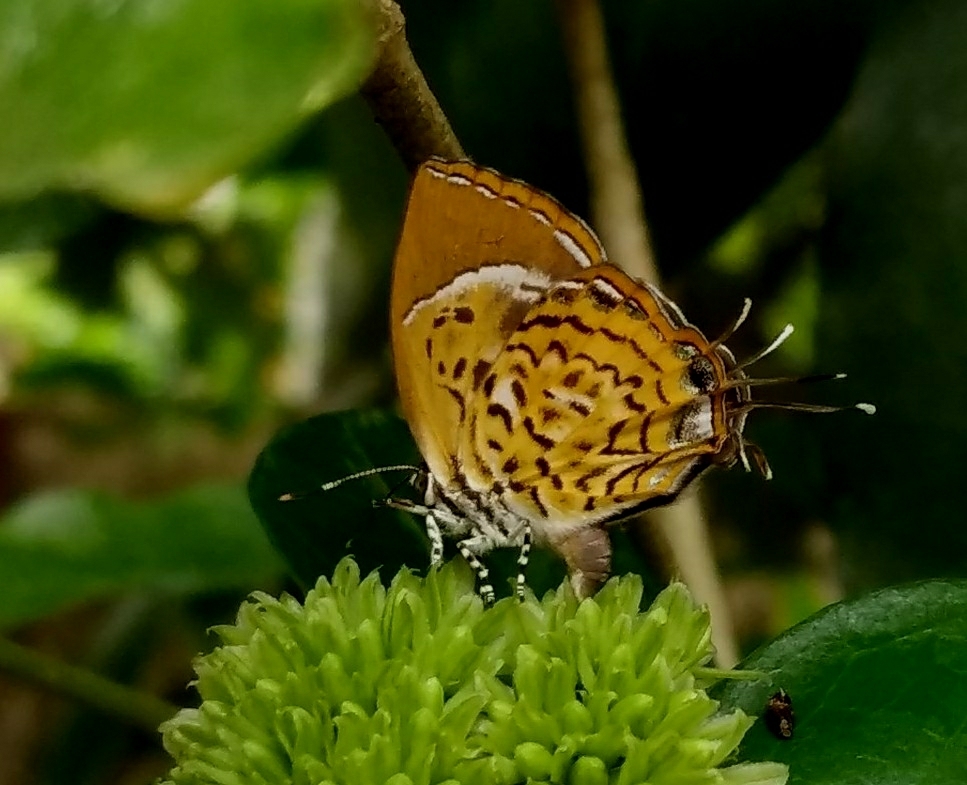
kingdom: Animalia
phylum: Arthropoda
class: Insecta
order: Lepidoptera
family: Lycaenidae
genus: Rathinda
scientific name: Rathinda amor
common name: Monkey puzzle
